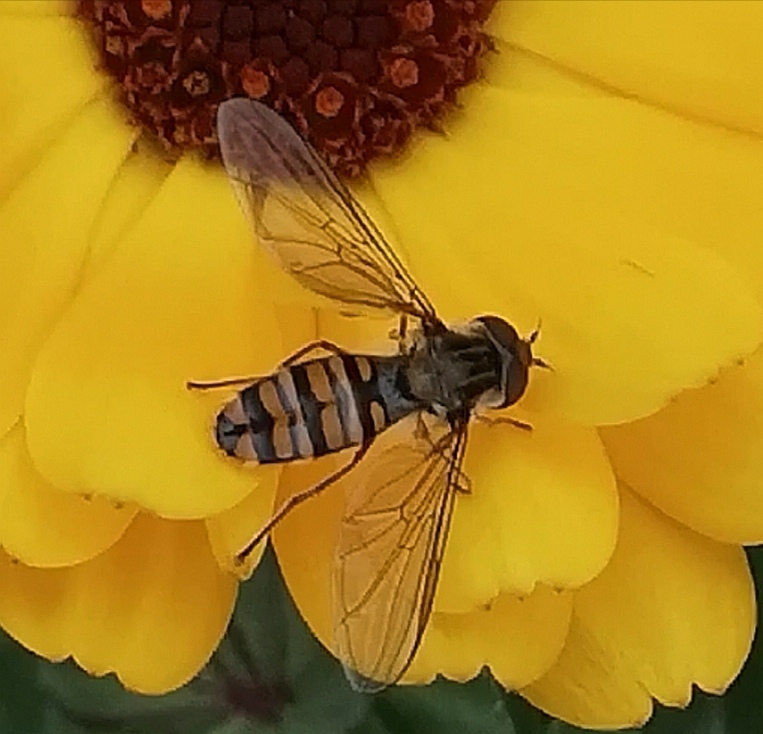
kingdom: Animalia
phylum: Arthropoda
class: Insecta
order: Diptera
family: Syrphidae
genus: Episyrphus
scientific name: Episyrphus balteatus
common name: Marmalade hoverfly
